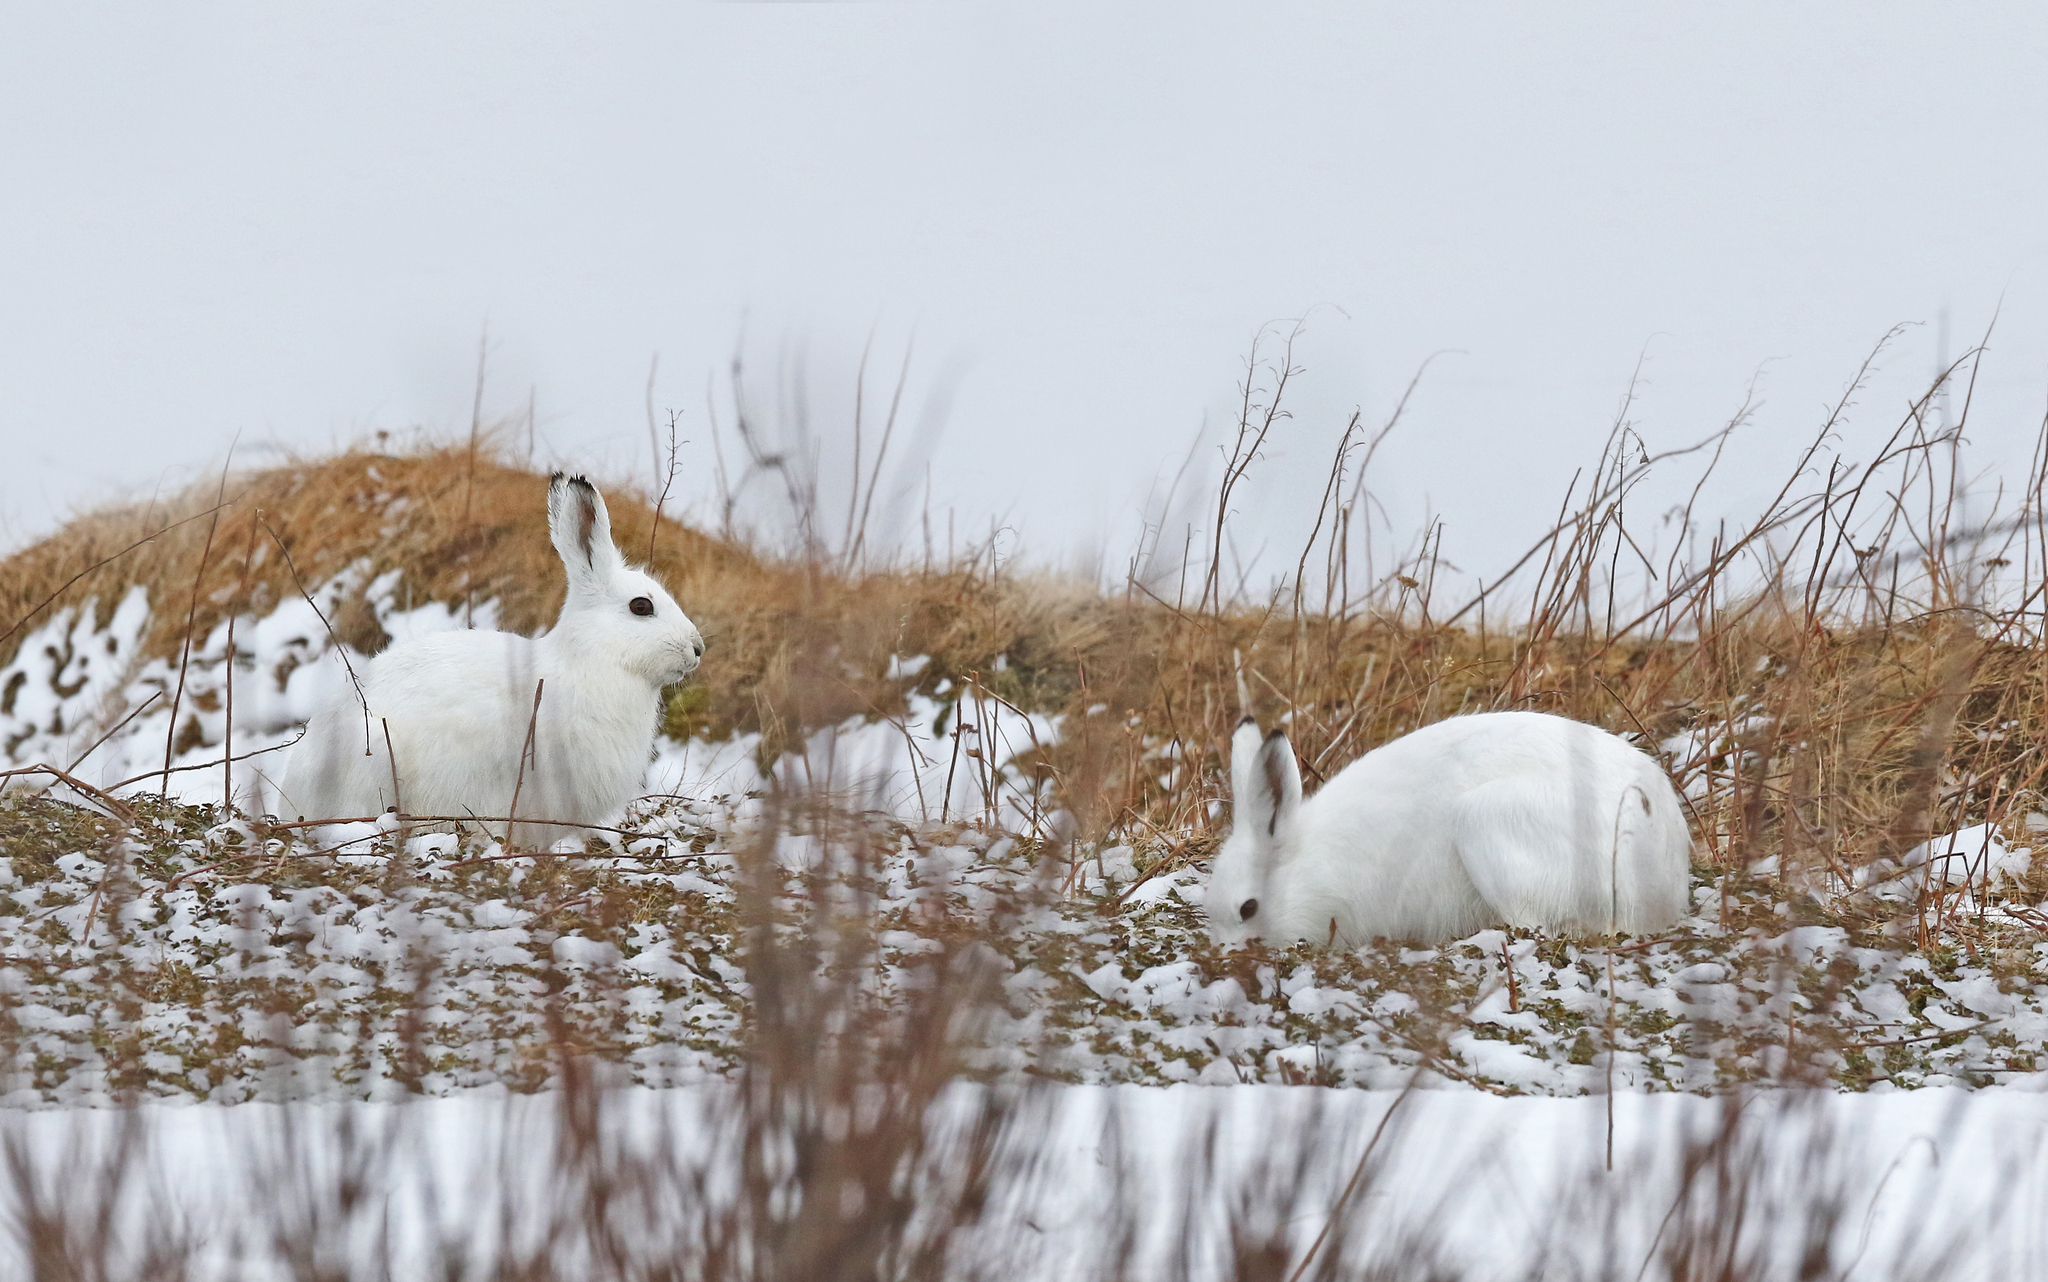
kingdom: Animalia
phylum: Chordata
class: Mammalia
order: Lagomorpha
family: Leporidae
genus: Lepus
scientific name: Lepus timidus
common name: Mountain hare
